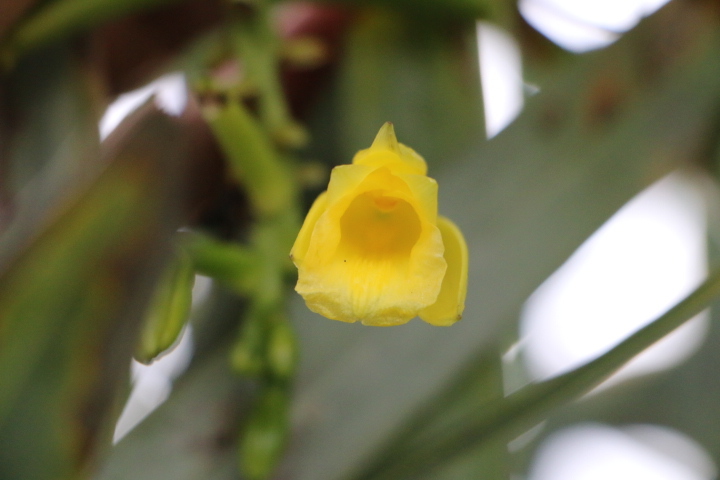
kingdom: Plantae
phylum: Tracheophyta
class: Liliopsida
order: Asparagales
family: Orchidaceae
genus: Vanilla
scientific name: Vanilla palmarum
